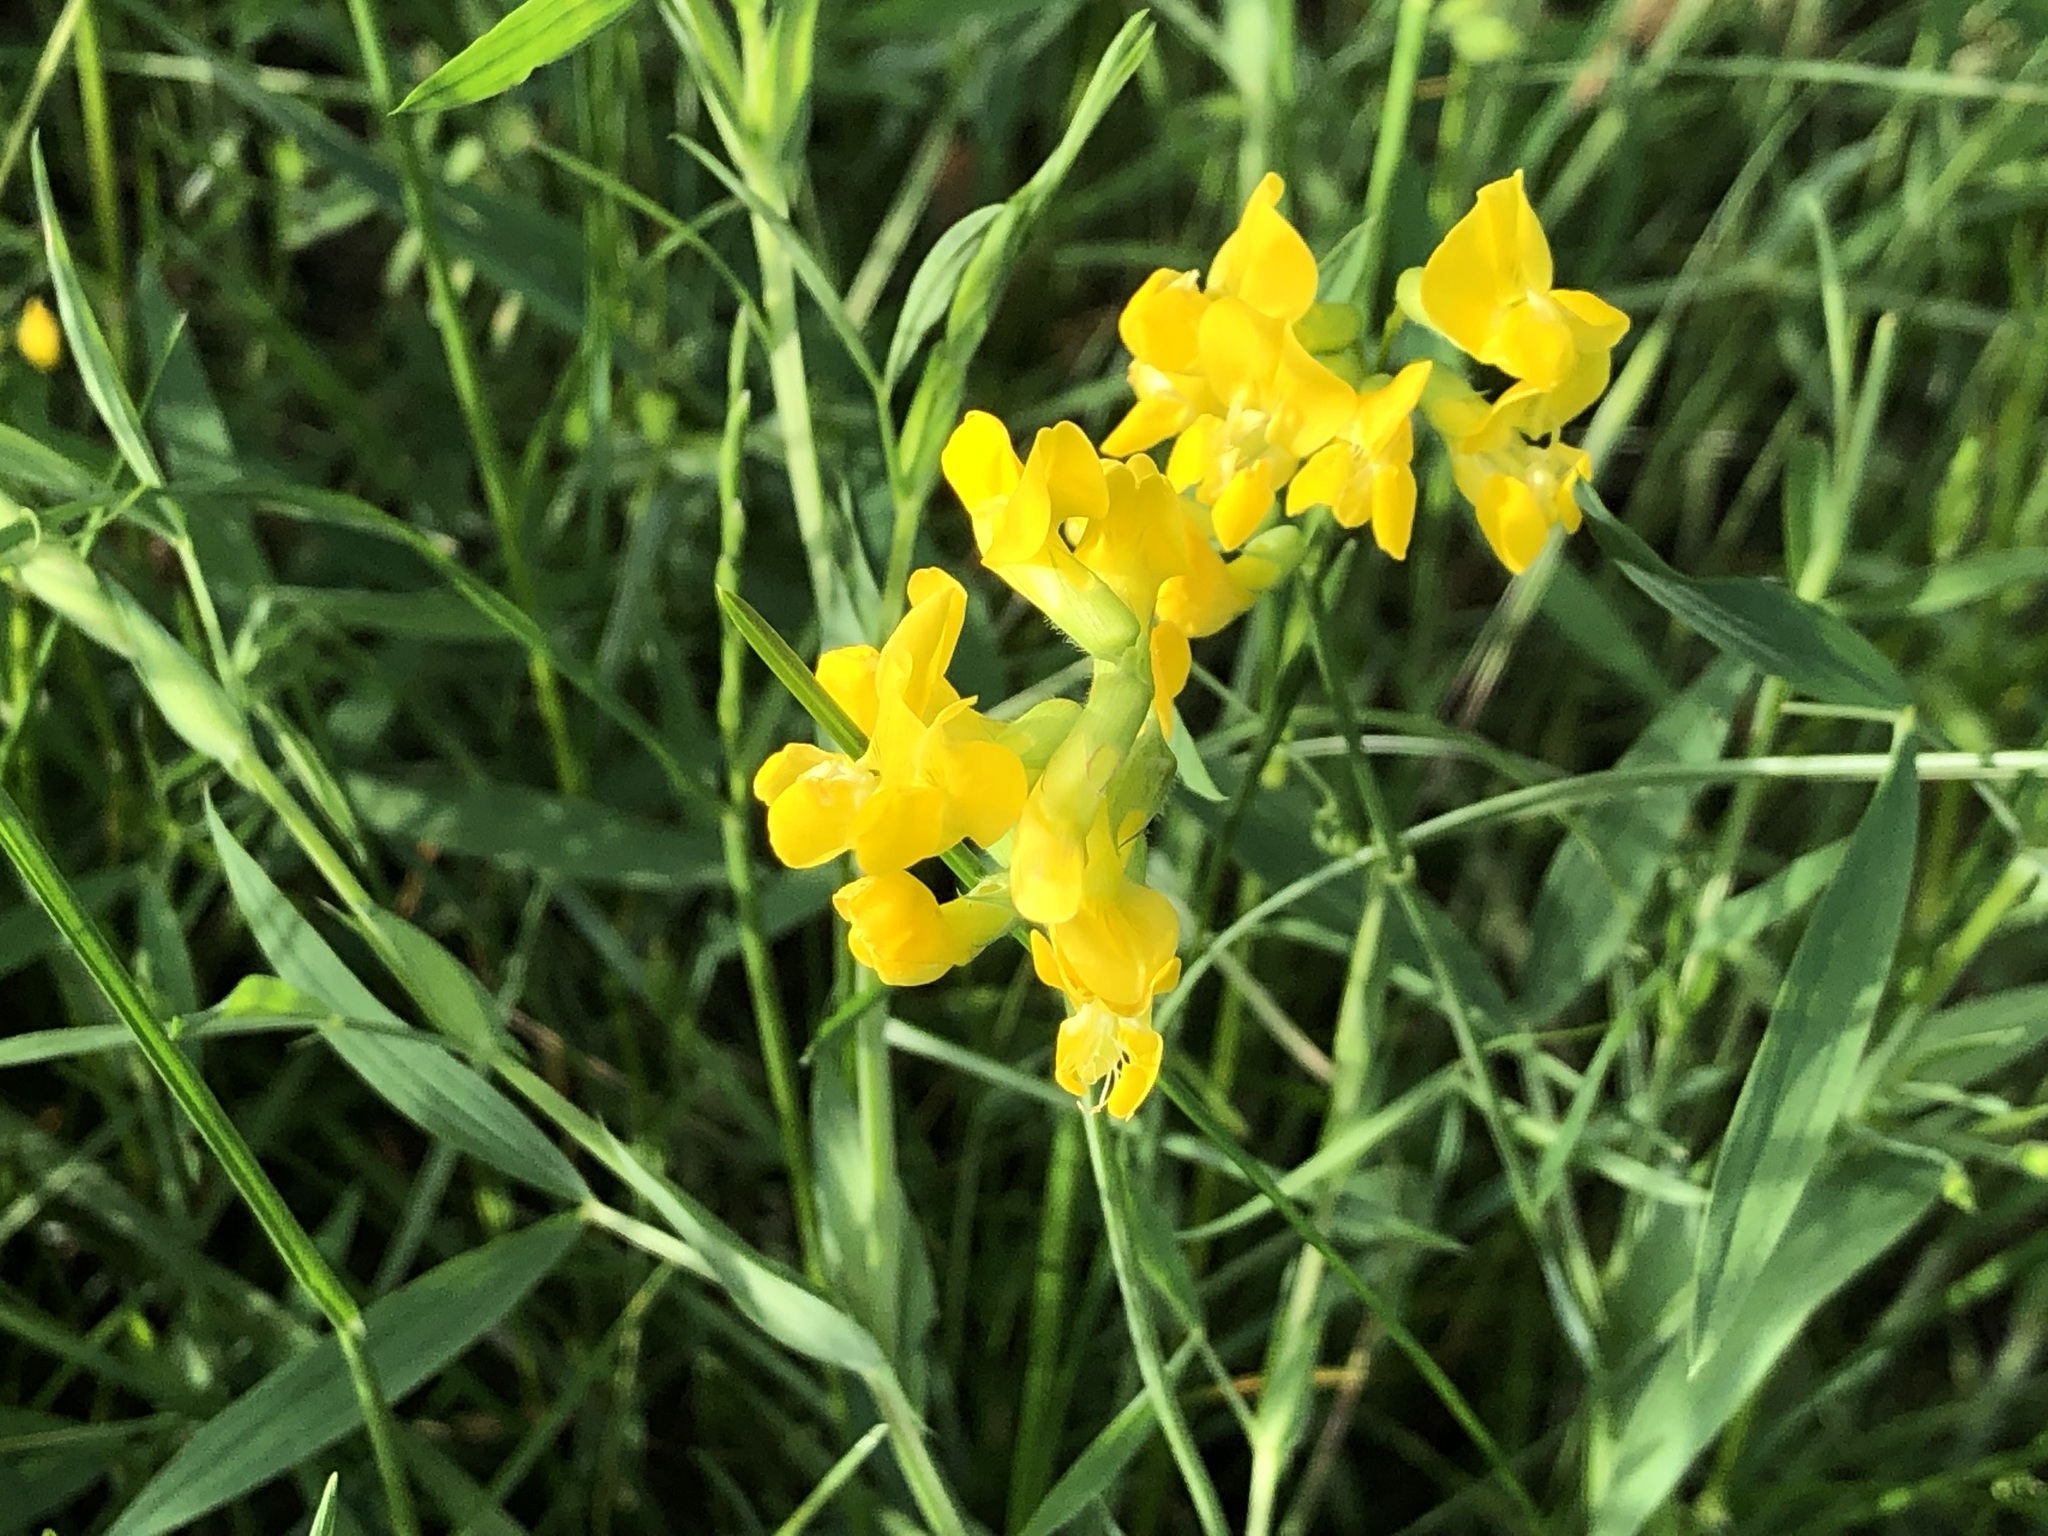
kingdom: Plantae
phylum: Tracheophyta
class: Magnoliopsida
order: Fabales
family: Fabaceae
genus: Lathyrus
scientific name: Lathyrus pratensis
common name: Meadow vetchling
